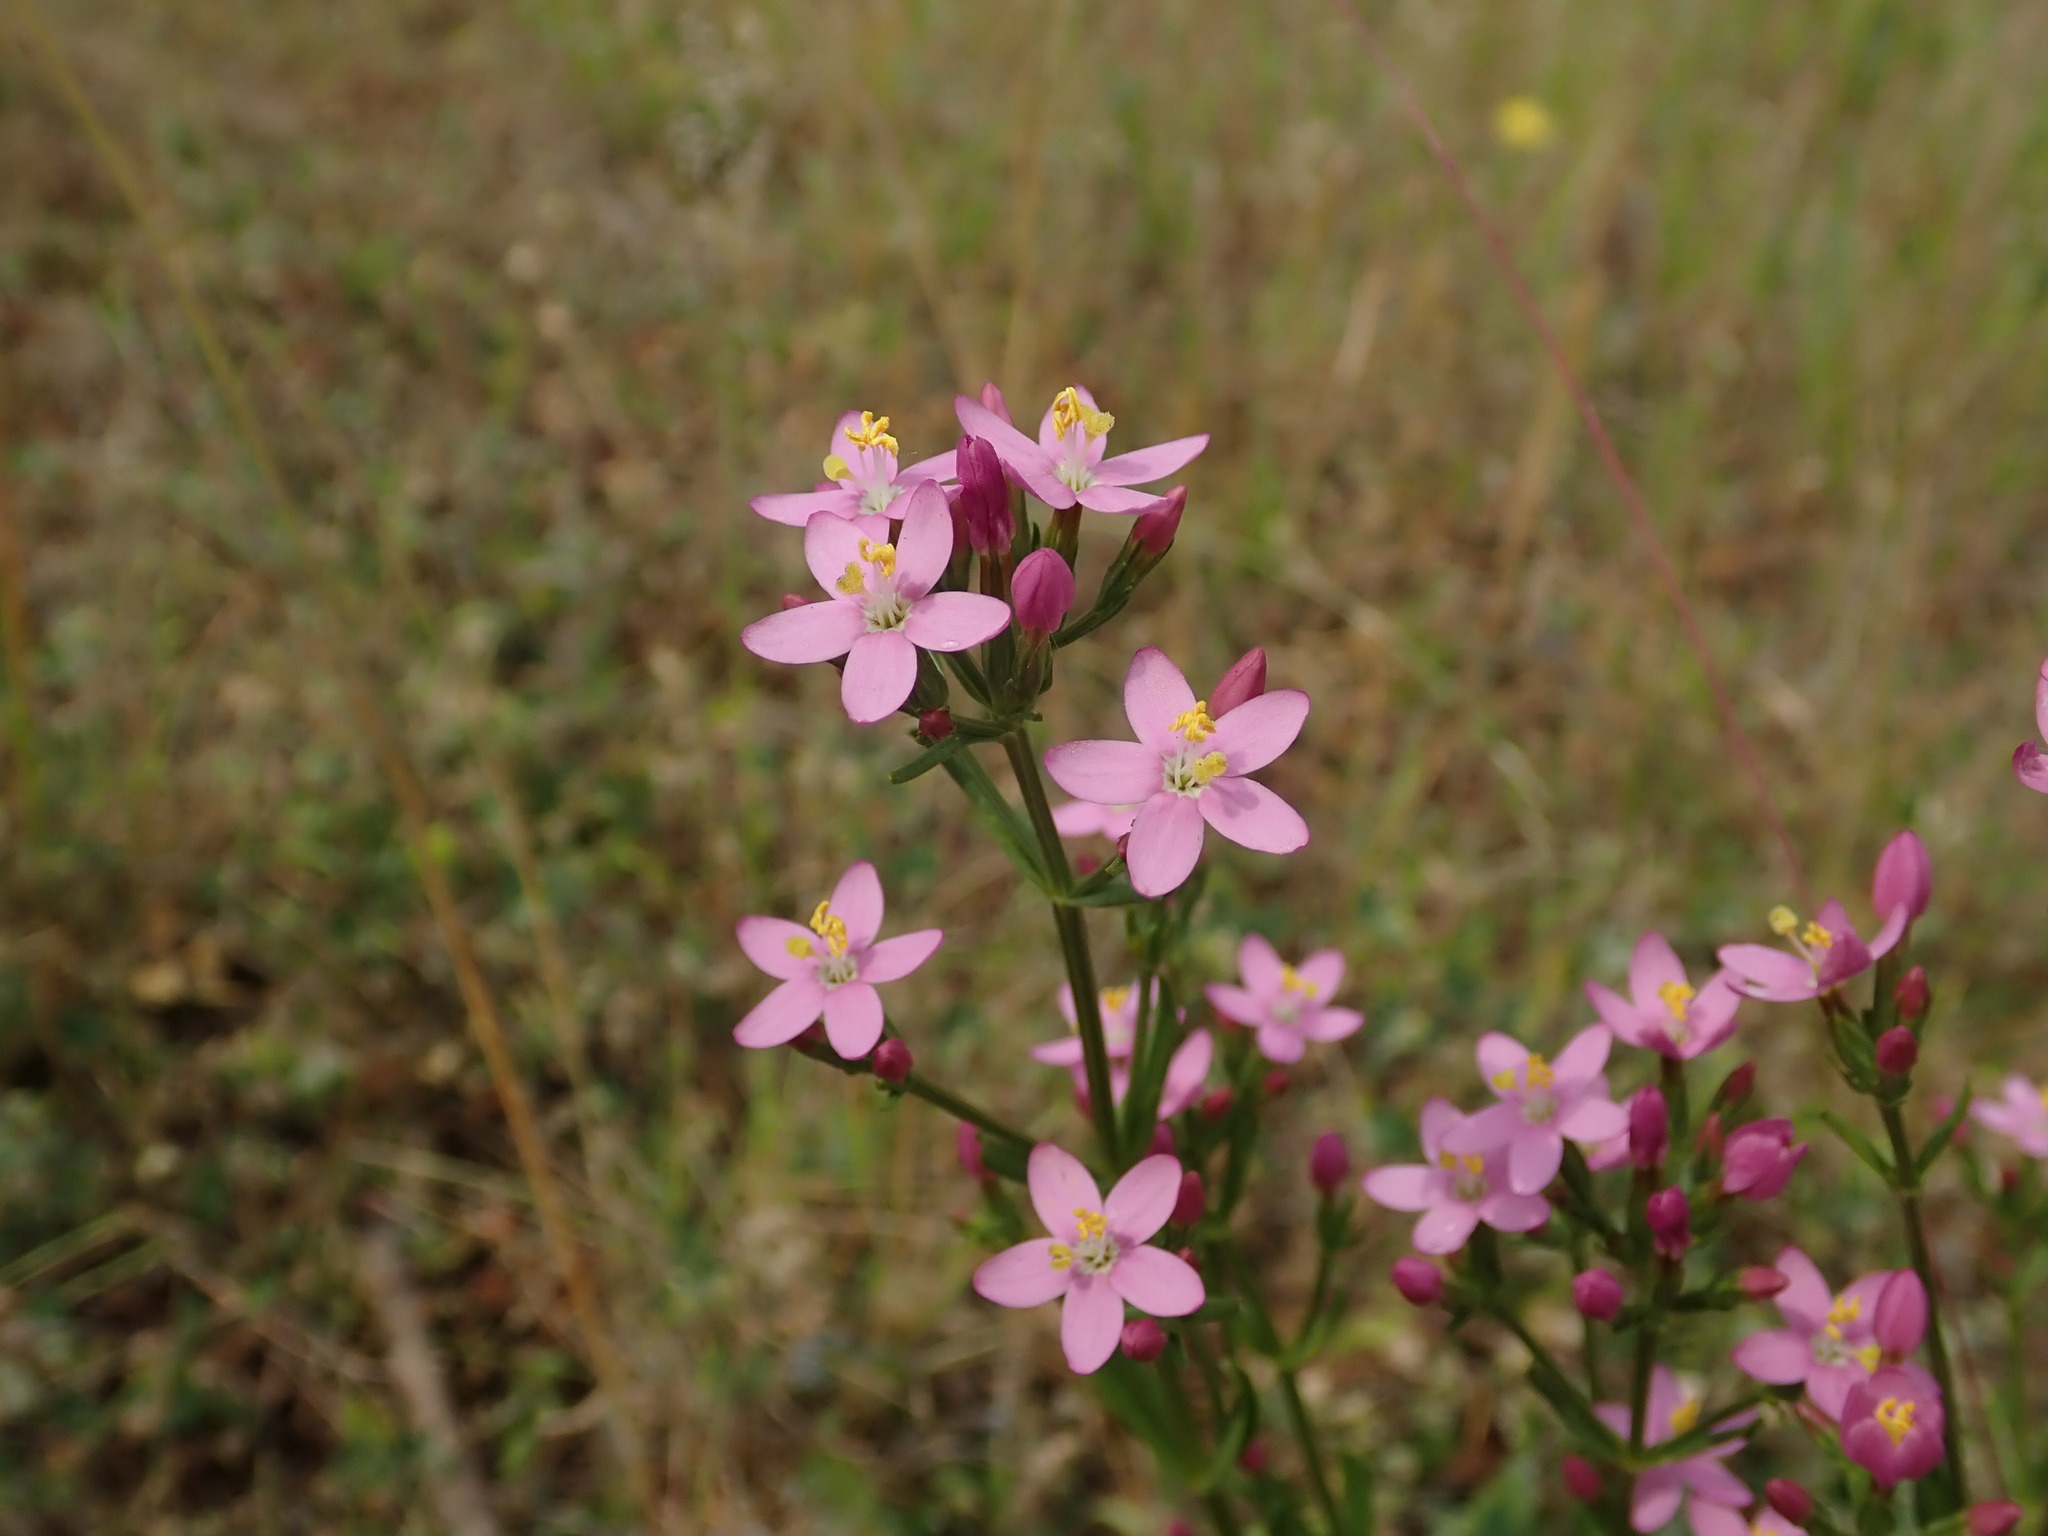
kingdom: Plantae
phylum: Tracheophyta
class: Magnoliopsida
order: Gentianales
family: Gentianaceae
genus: Centaurium
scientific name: Centaurium erythraea
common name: Common centaury
